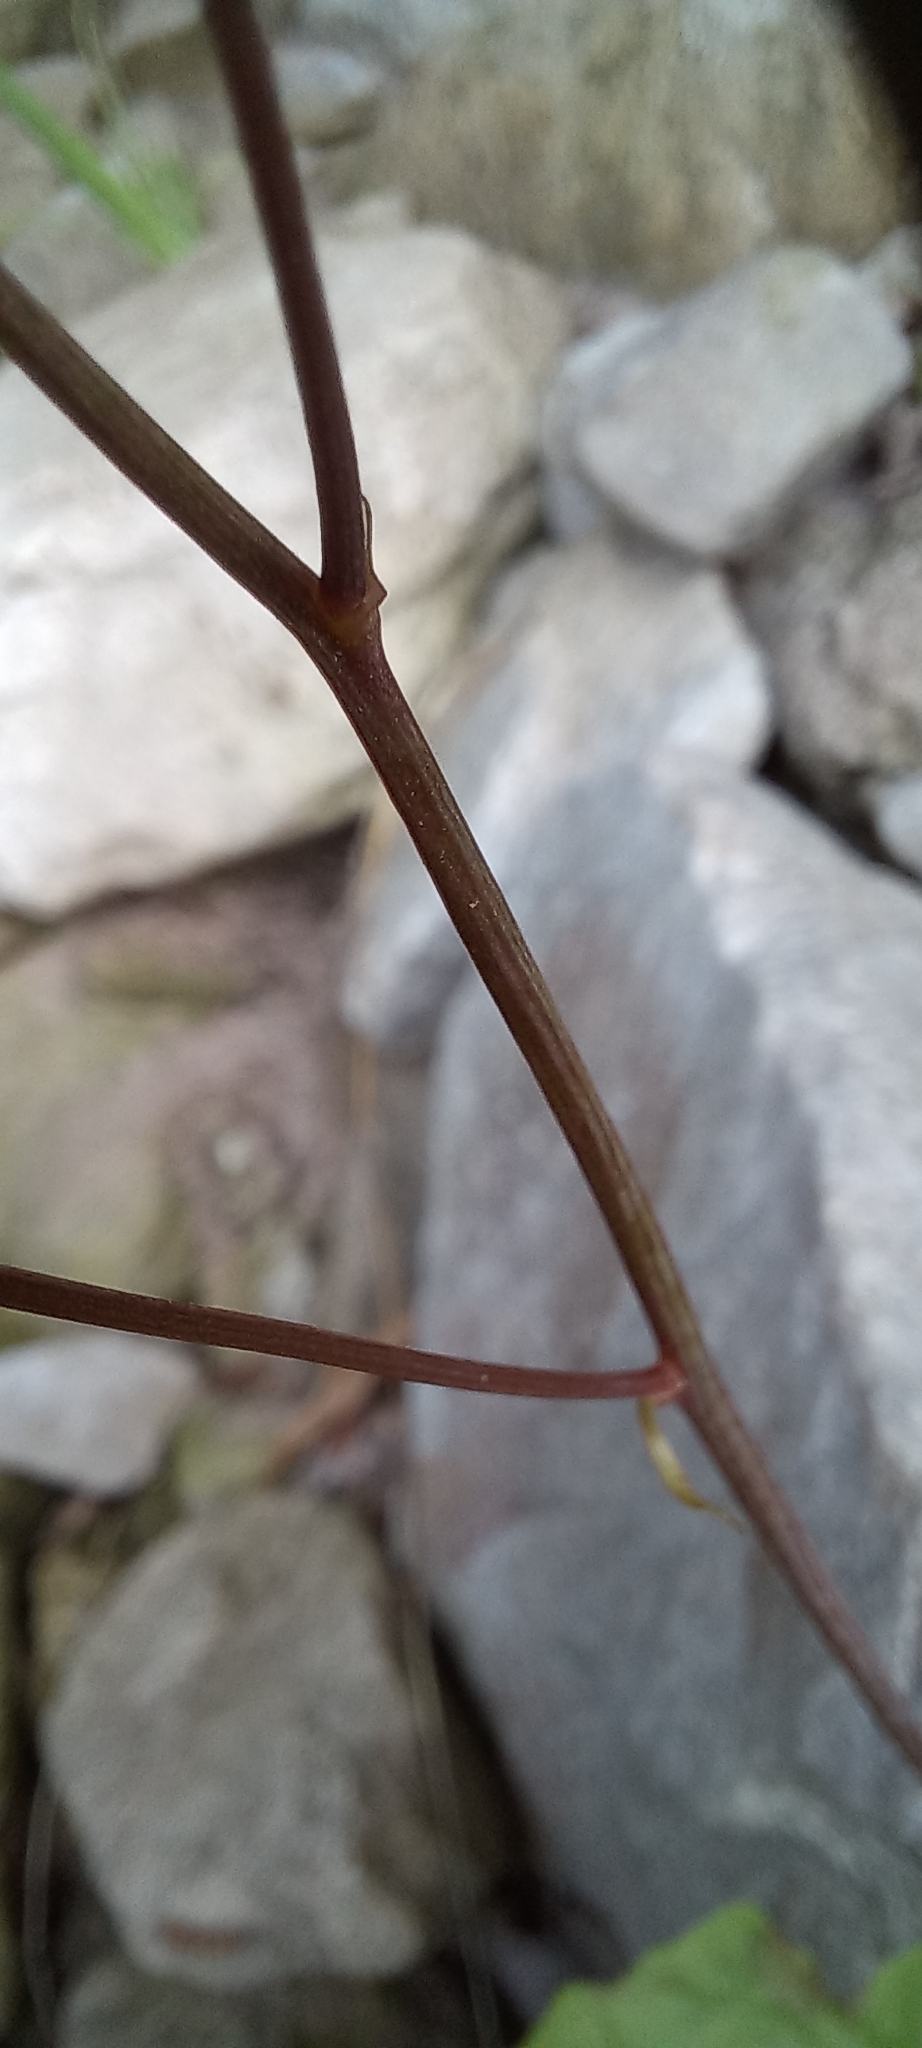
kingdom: Plantae
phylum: Tracheophyta
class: Magnoliopsida
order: Asterales
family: Asteraceae
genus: Youngia
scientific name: Youngia japonica
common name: Oriental false hawksbeard
